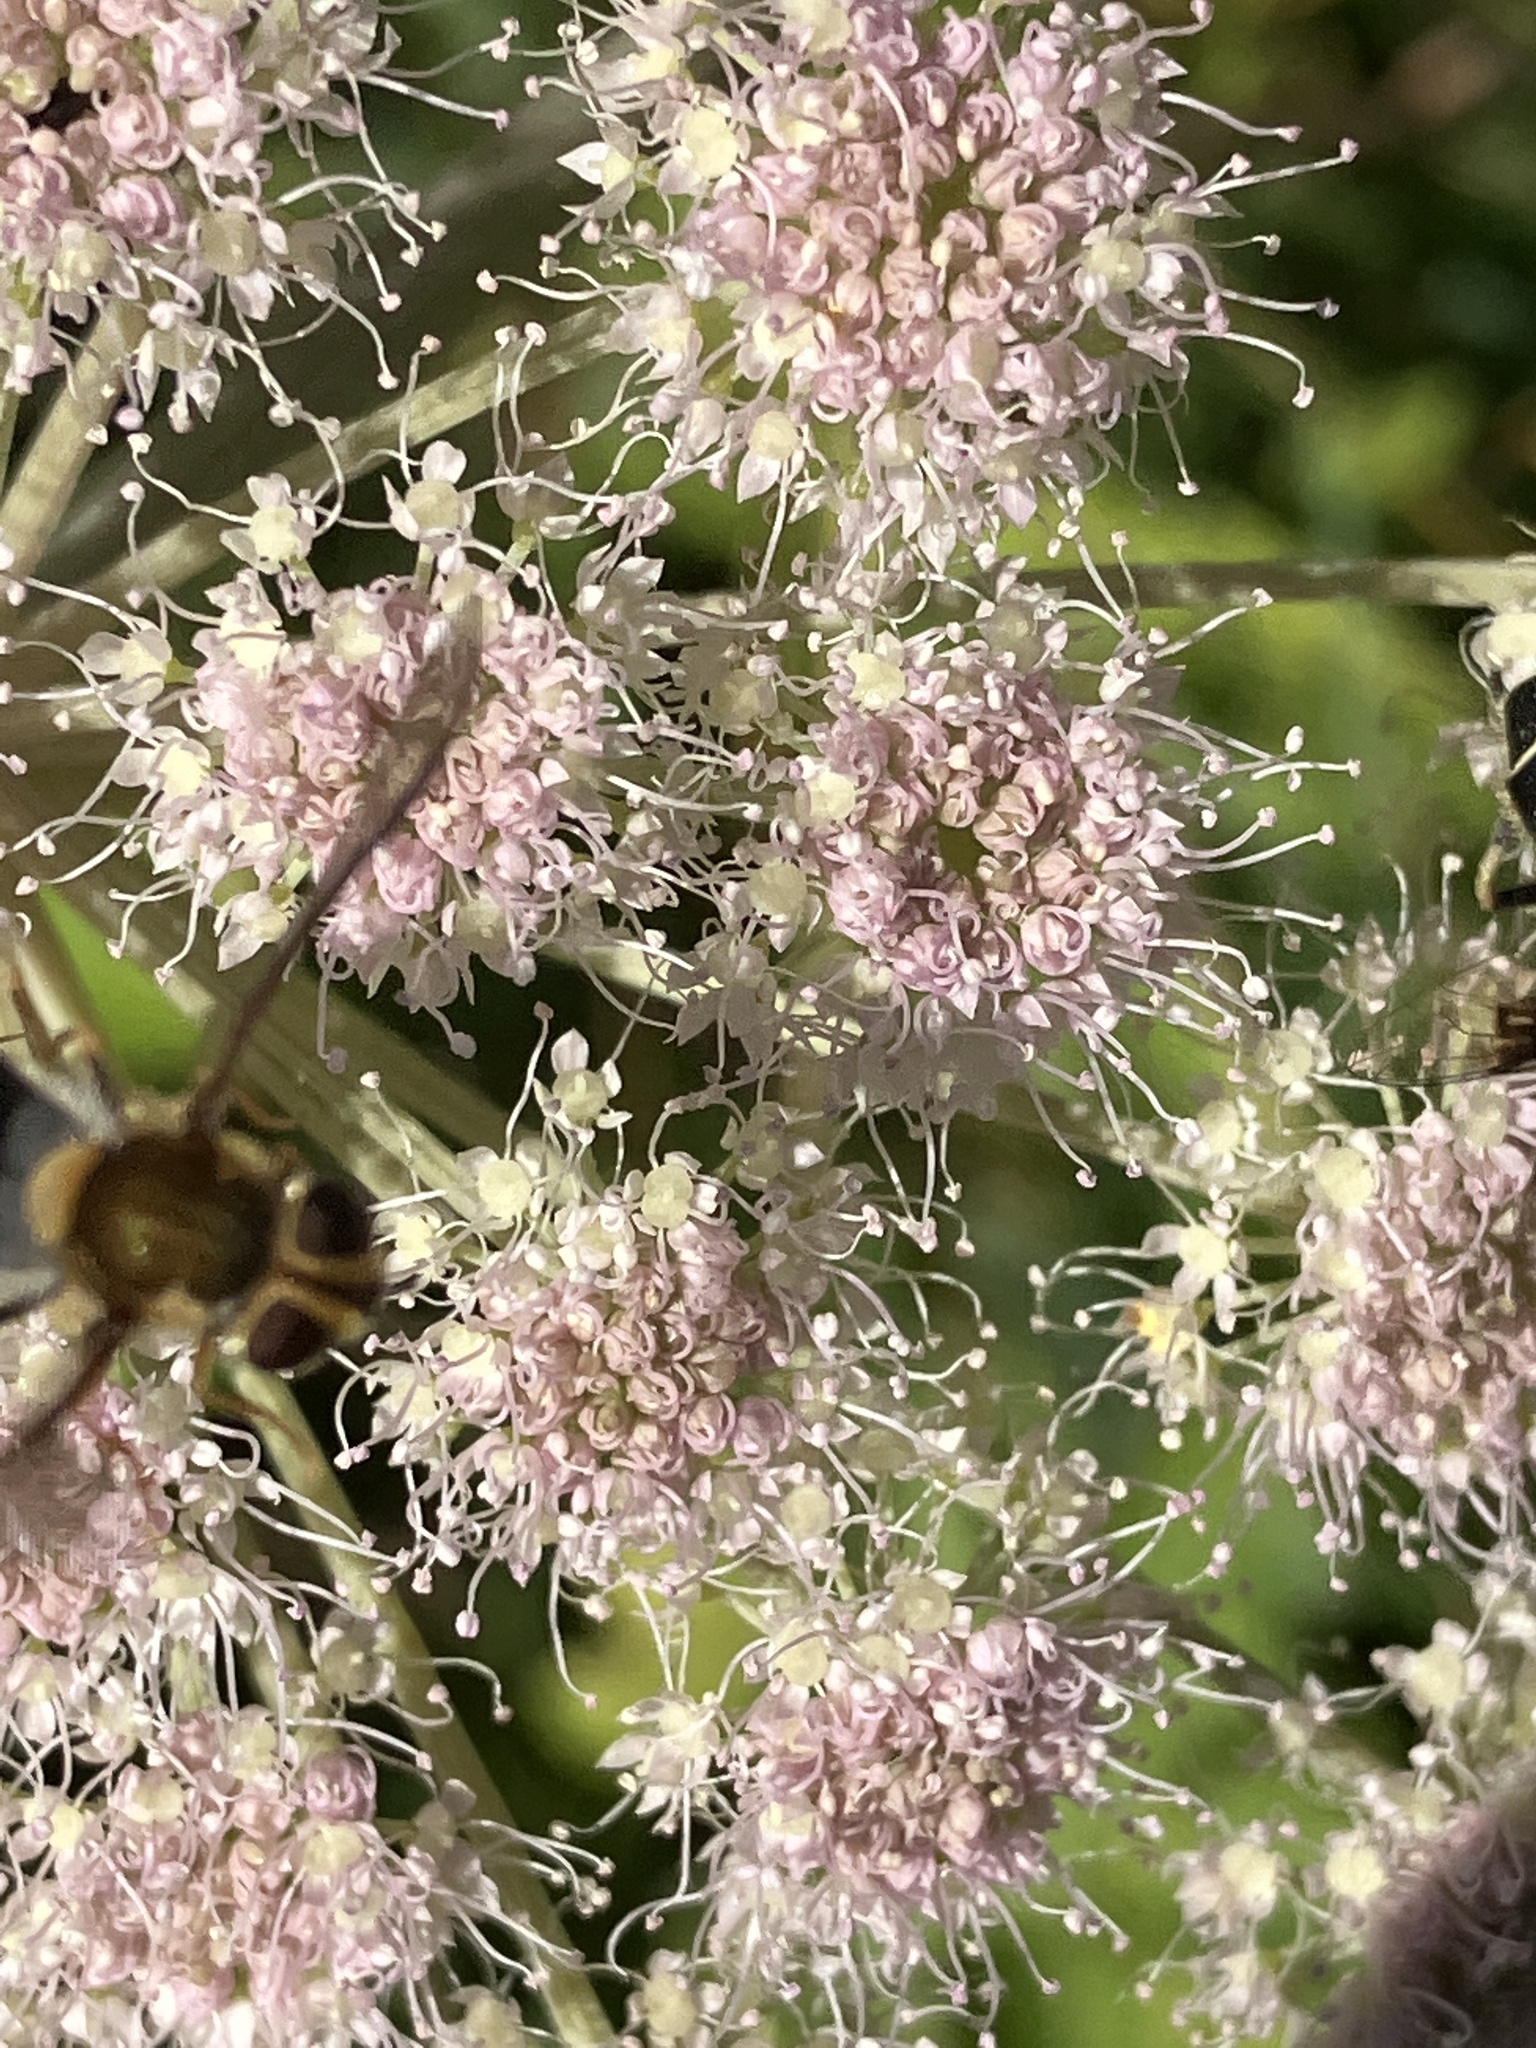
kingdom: Animalia
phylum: Arthropoda
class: Insecta
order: Diptera
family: Syrphidae
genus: Leucozona
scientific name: Leucozona glaucia
